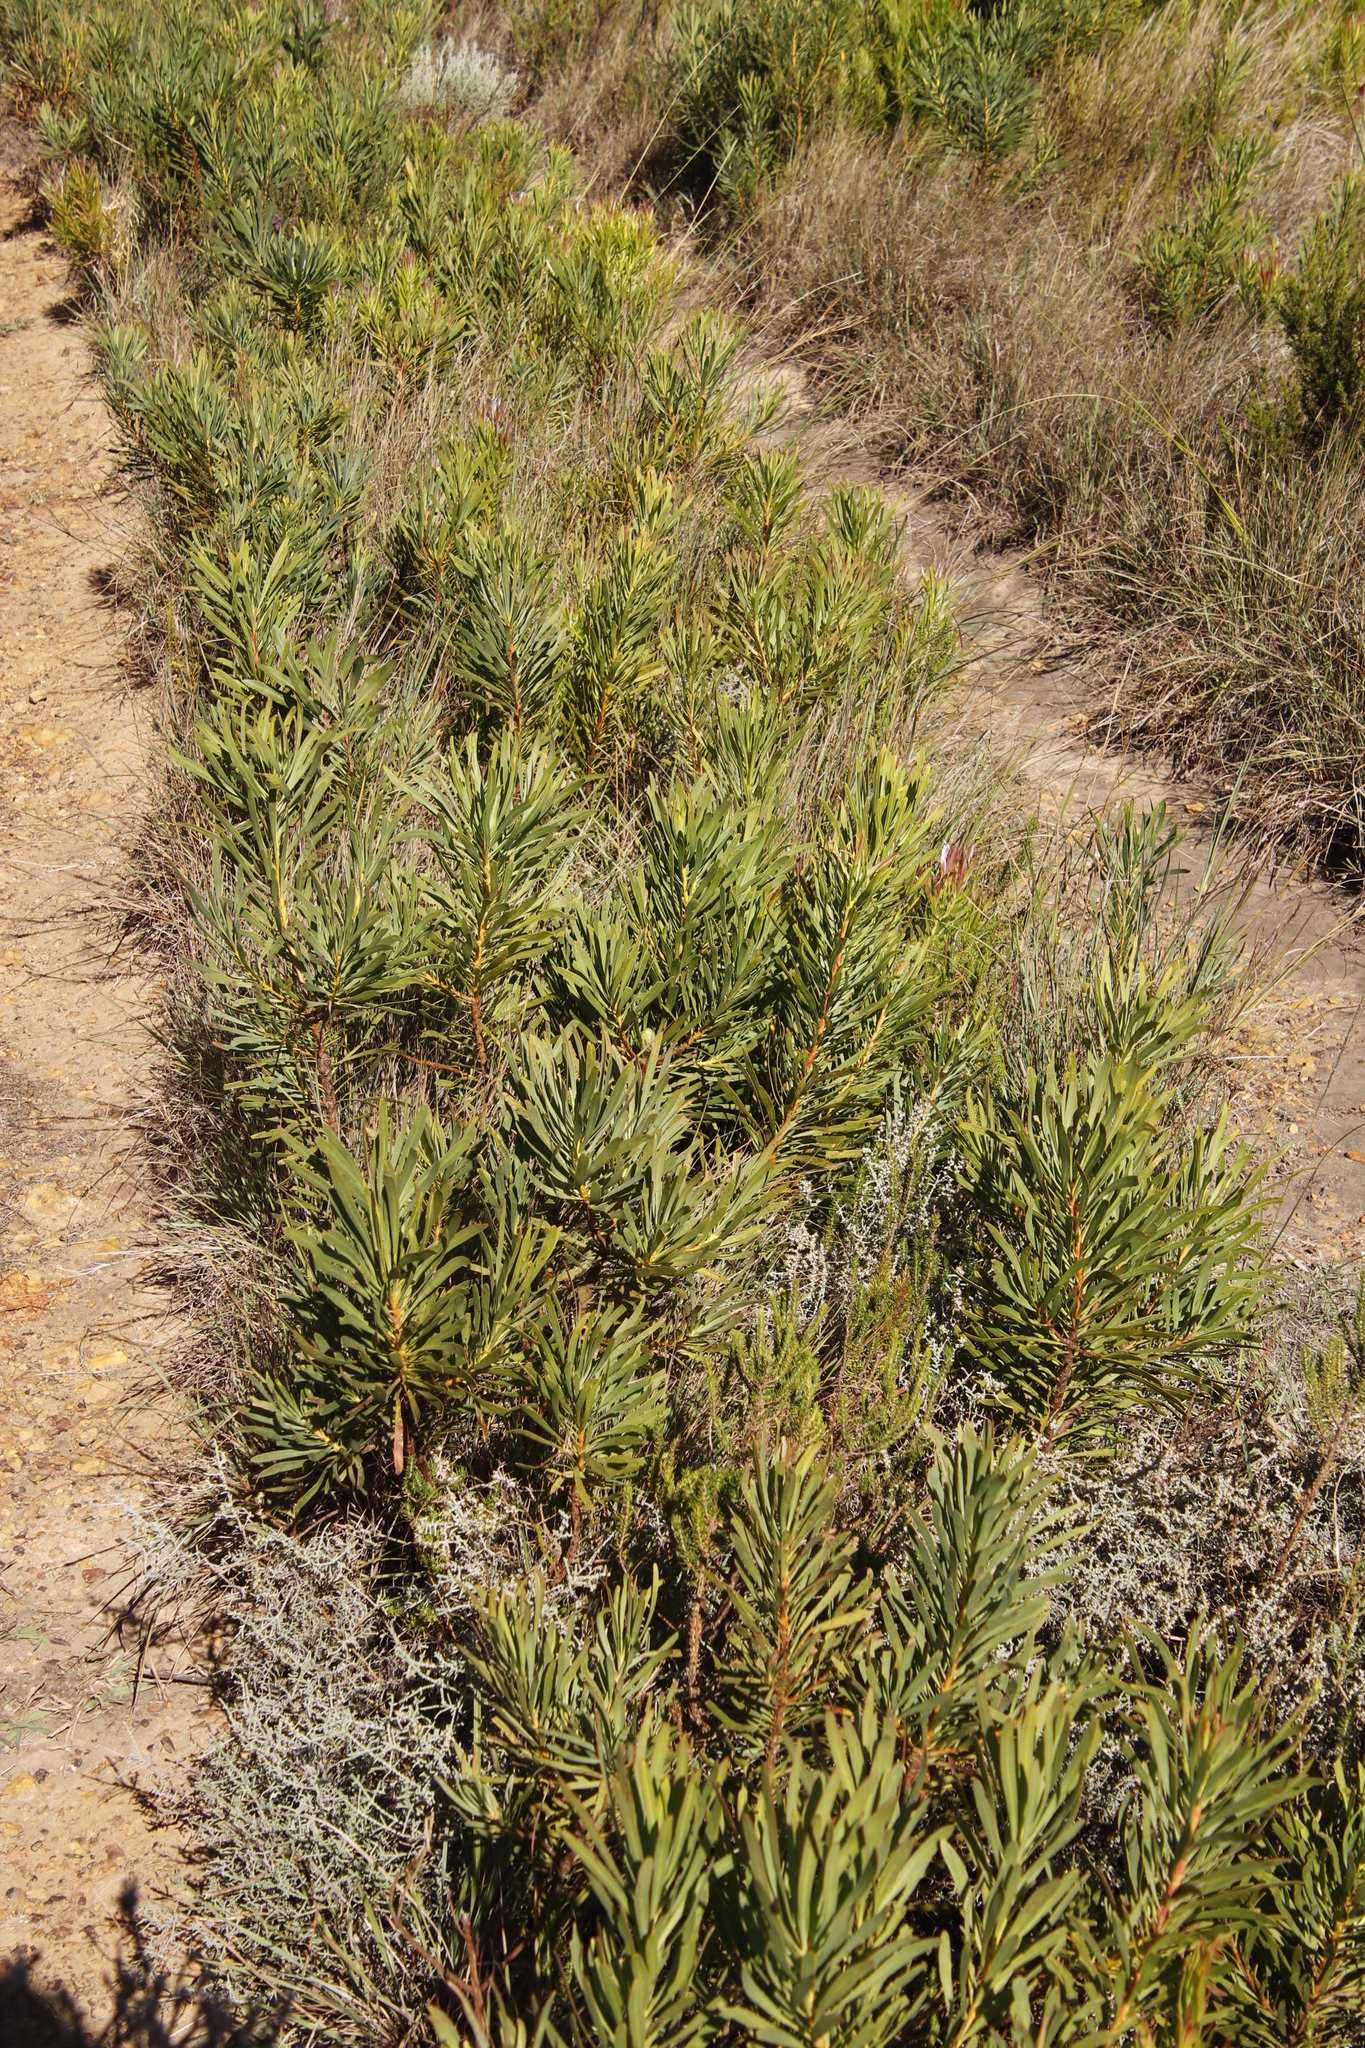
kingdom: Plantae
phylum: Tracheophyta
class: Magnoliopsida
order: Proteales
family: Proteaceae
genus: Protea
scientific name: Protea repens
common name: Sugarbush
